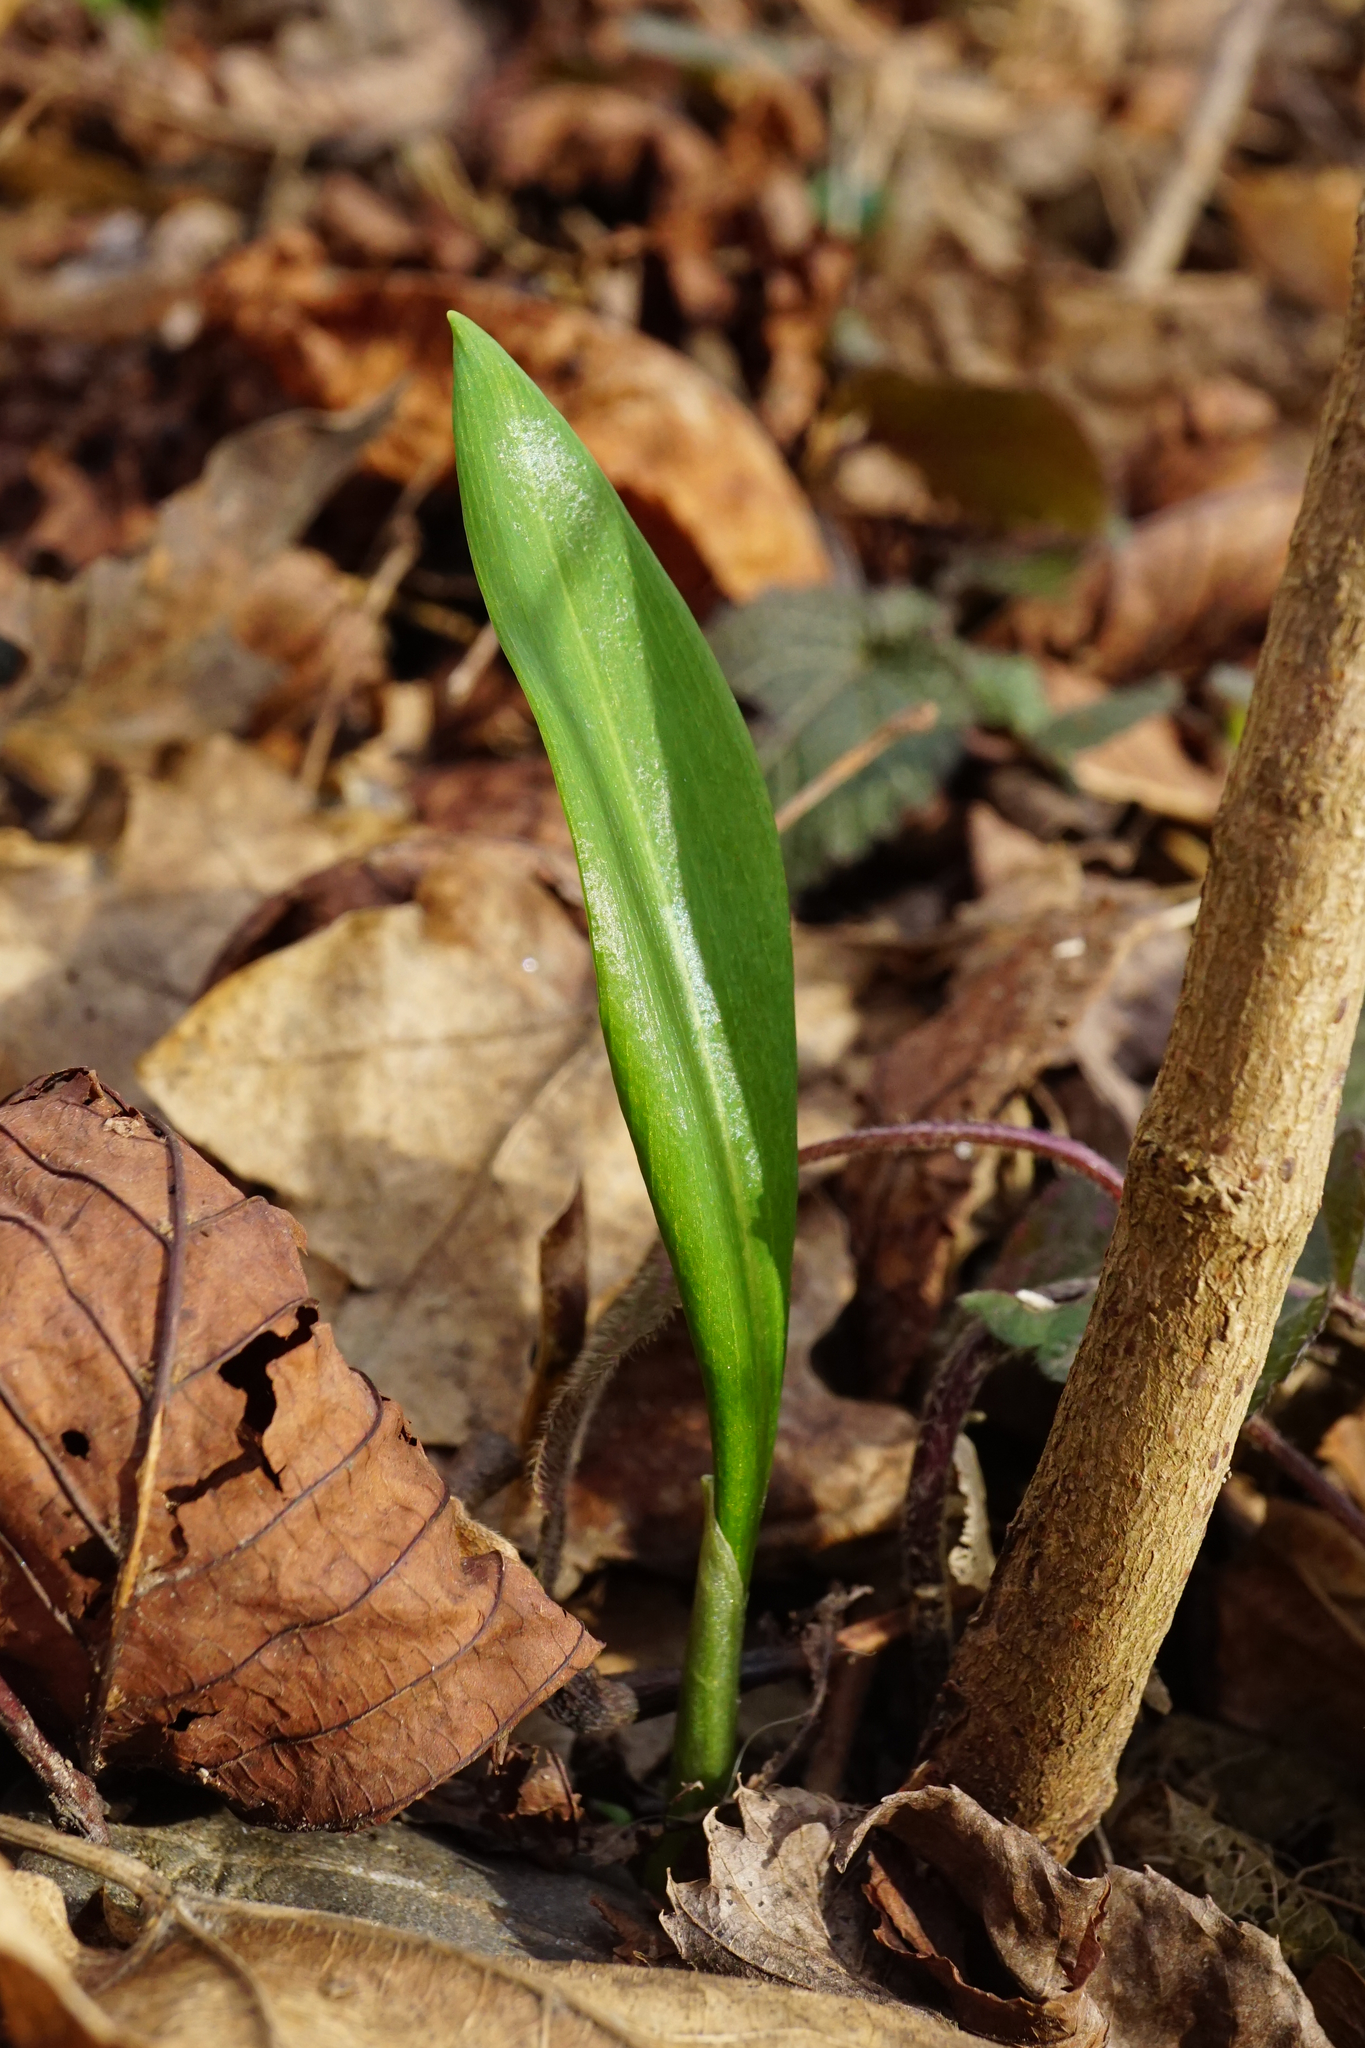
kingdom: Plantae
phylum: Tracheophyta
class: Liliopsida
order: Asparagales
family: Amaryllidaceae
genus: Allium
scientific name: Allium ursinum
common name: Ramsons
